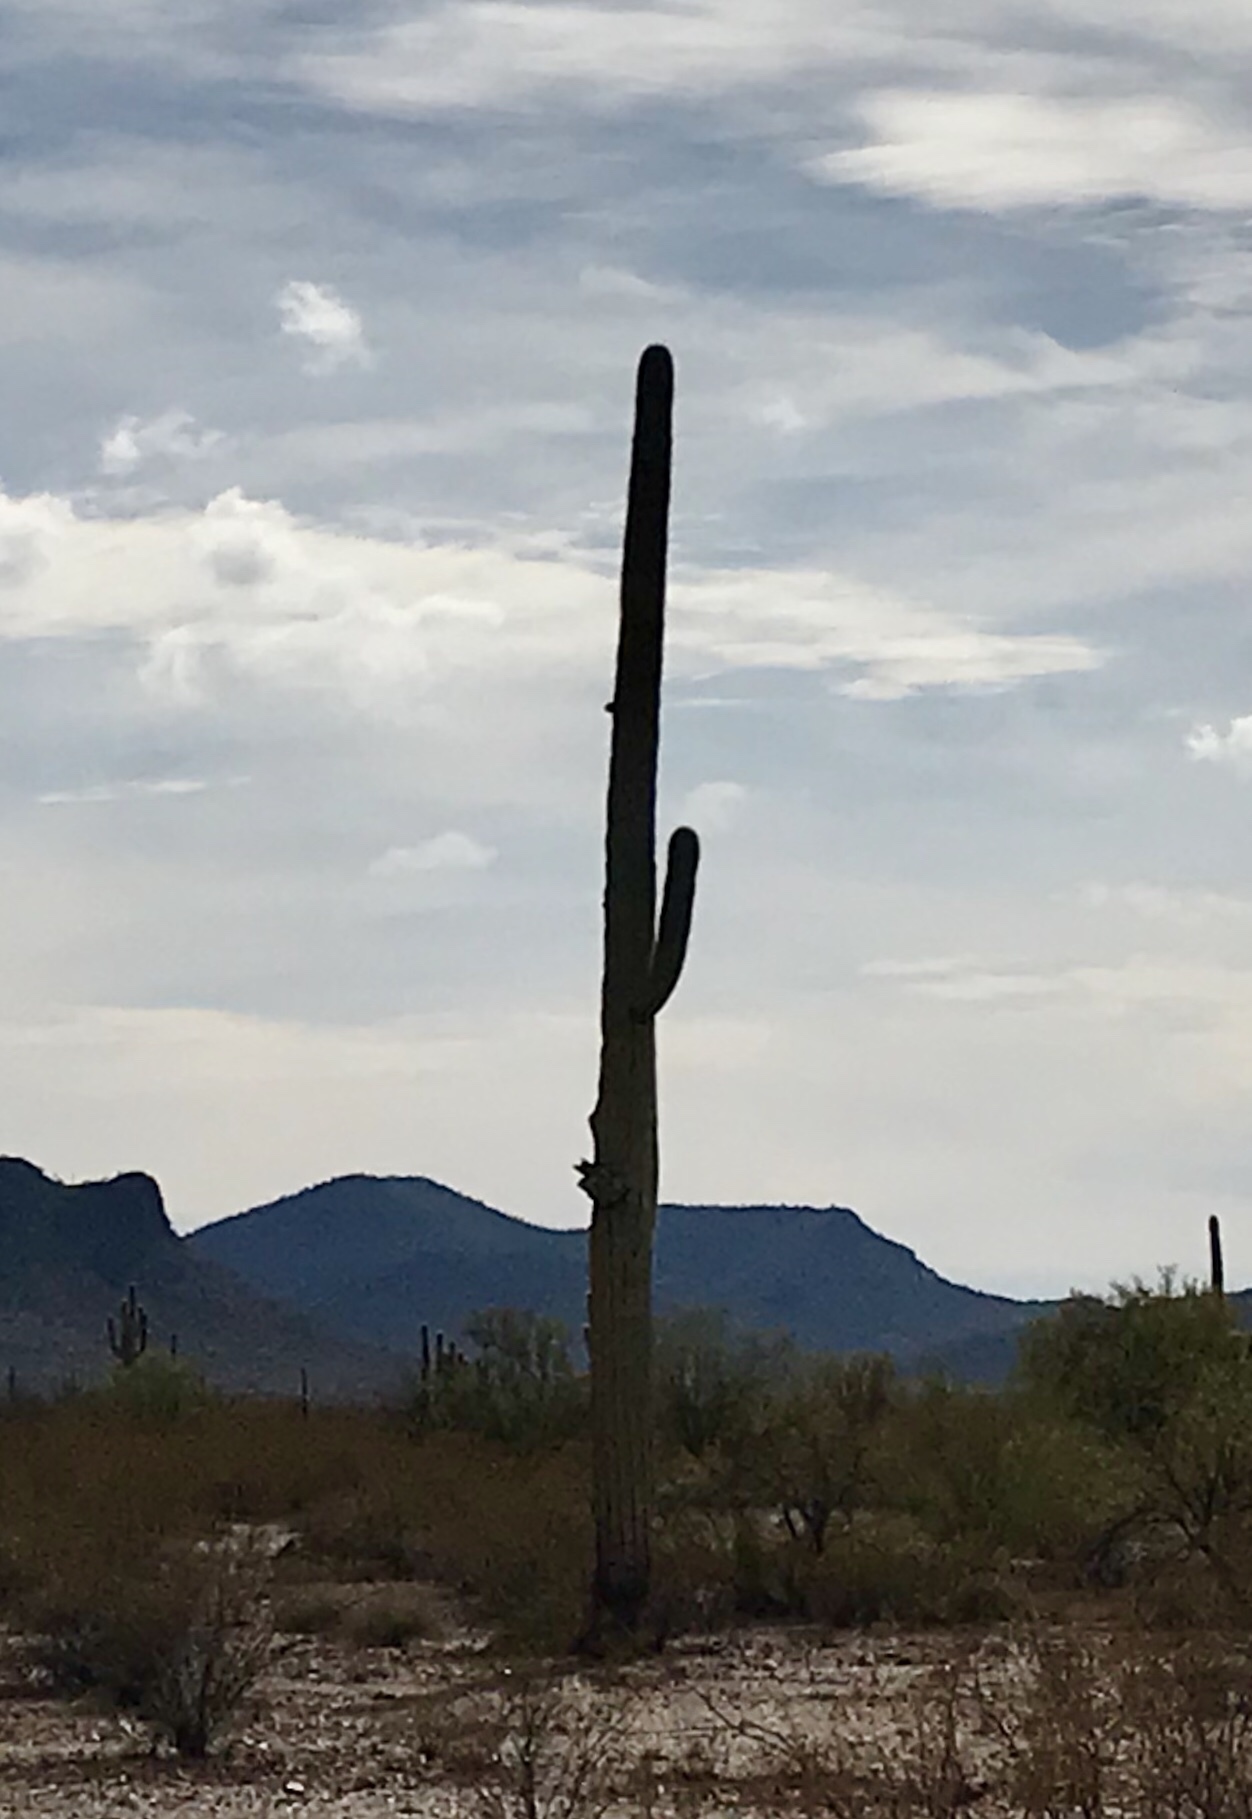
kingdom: Plantae
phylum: Tracheophyta
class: Magnoliopsida
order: Caryophyllales
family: Cactaceae
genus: Carnegiea
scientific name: Carnegiea gigantea
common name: Saguaro
